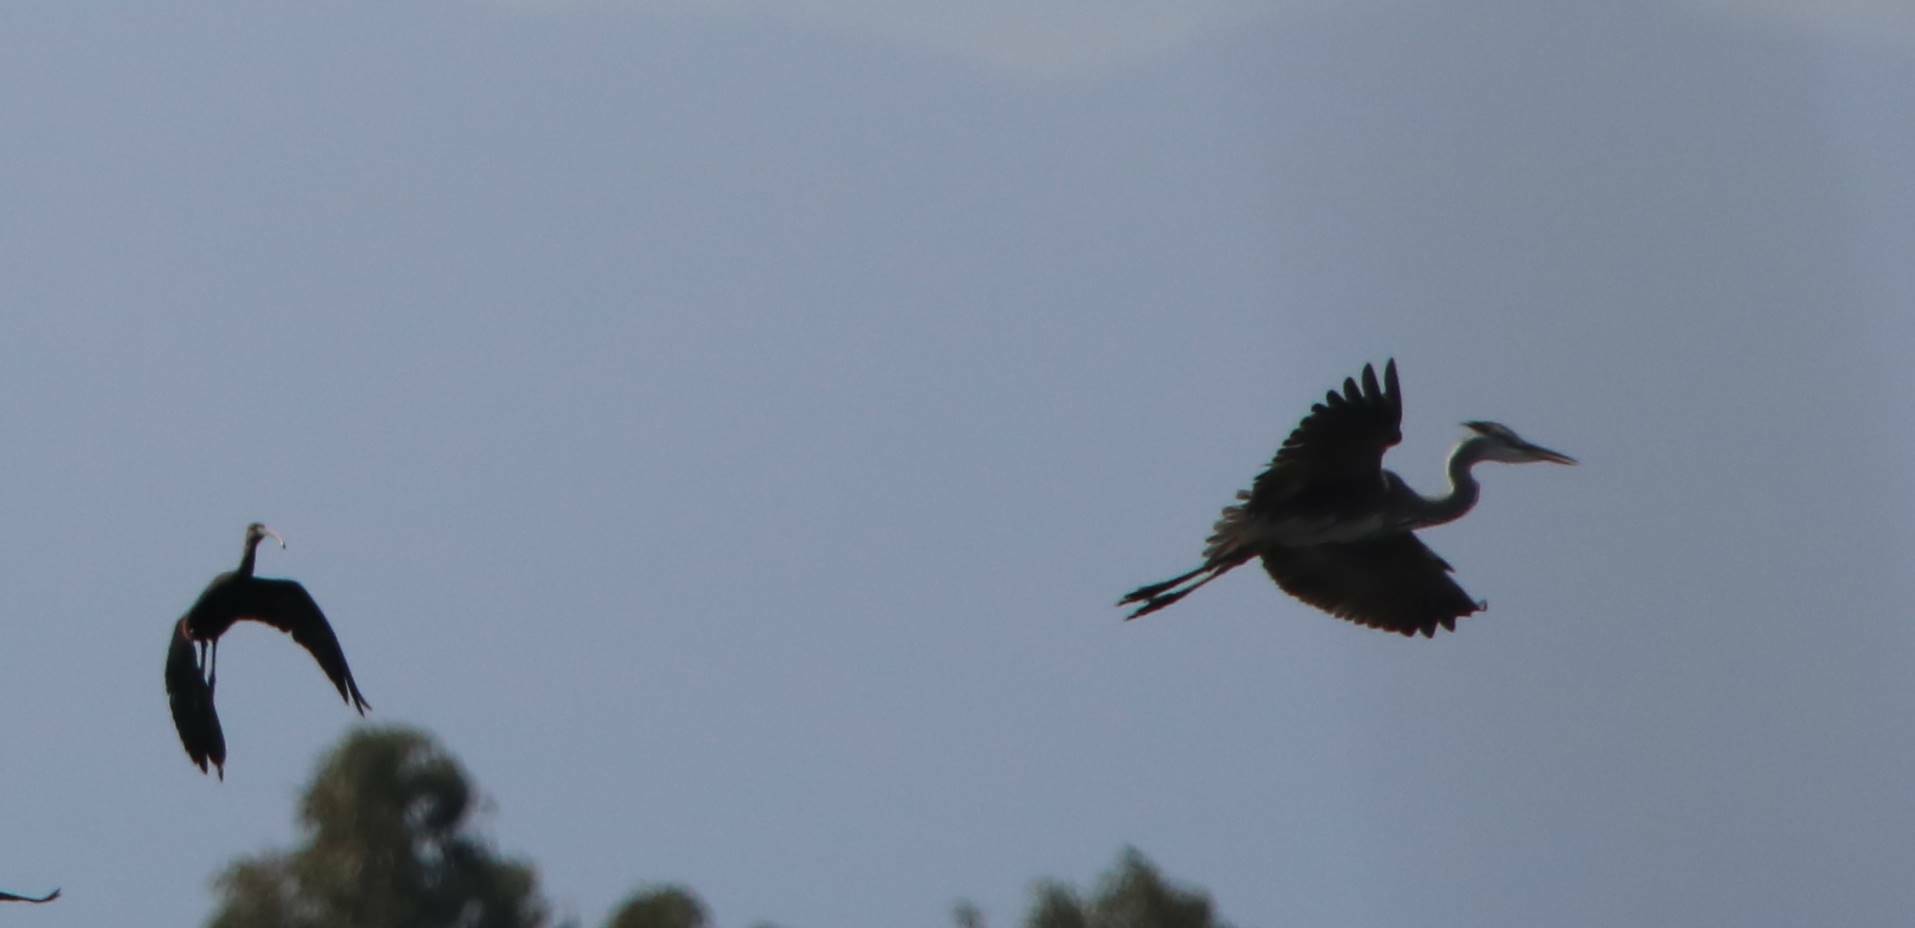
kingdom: Animalia
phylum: Chordata
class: Aves
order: Pelecaniformes
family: Ardeidae
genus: Ardea
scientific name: Ardea cinerea
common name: Grey heron
